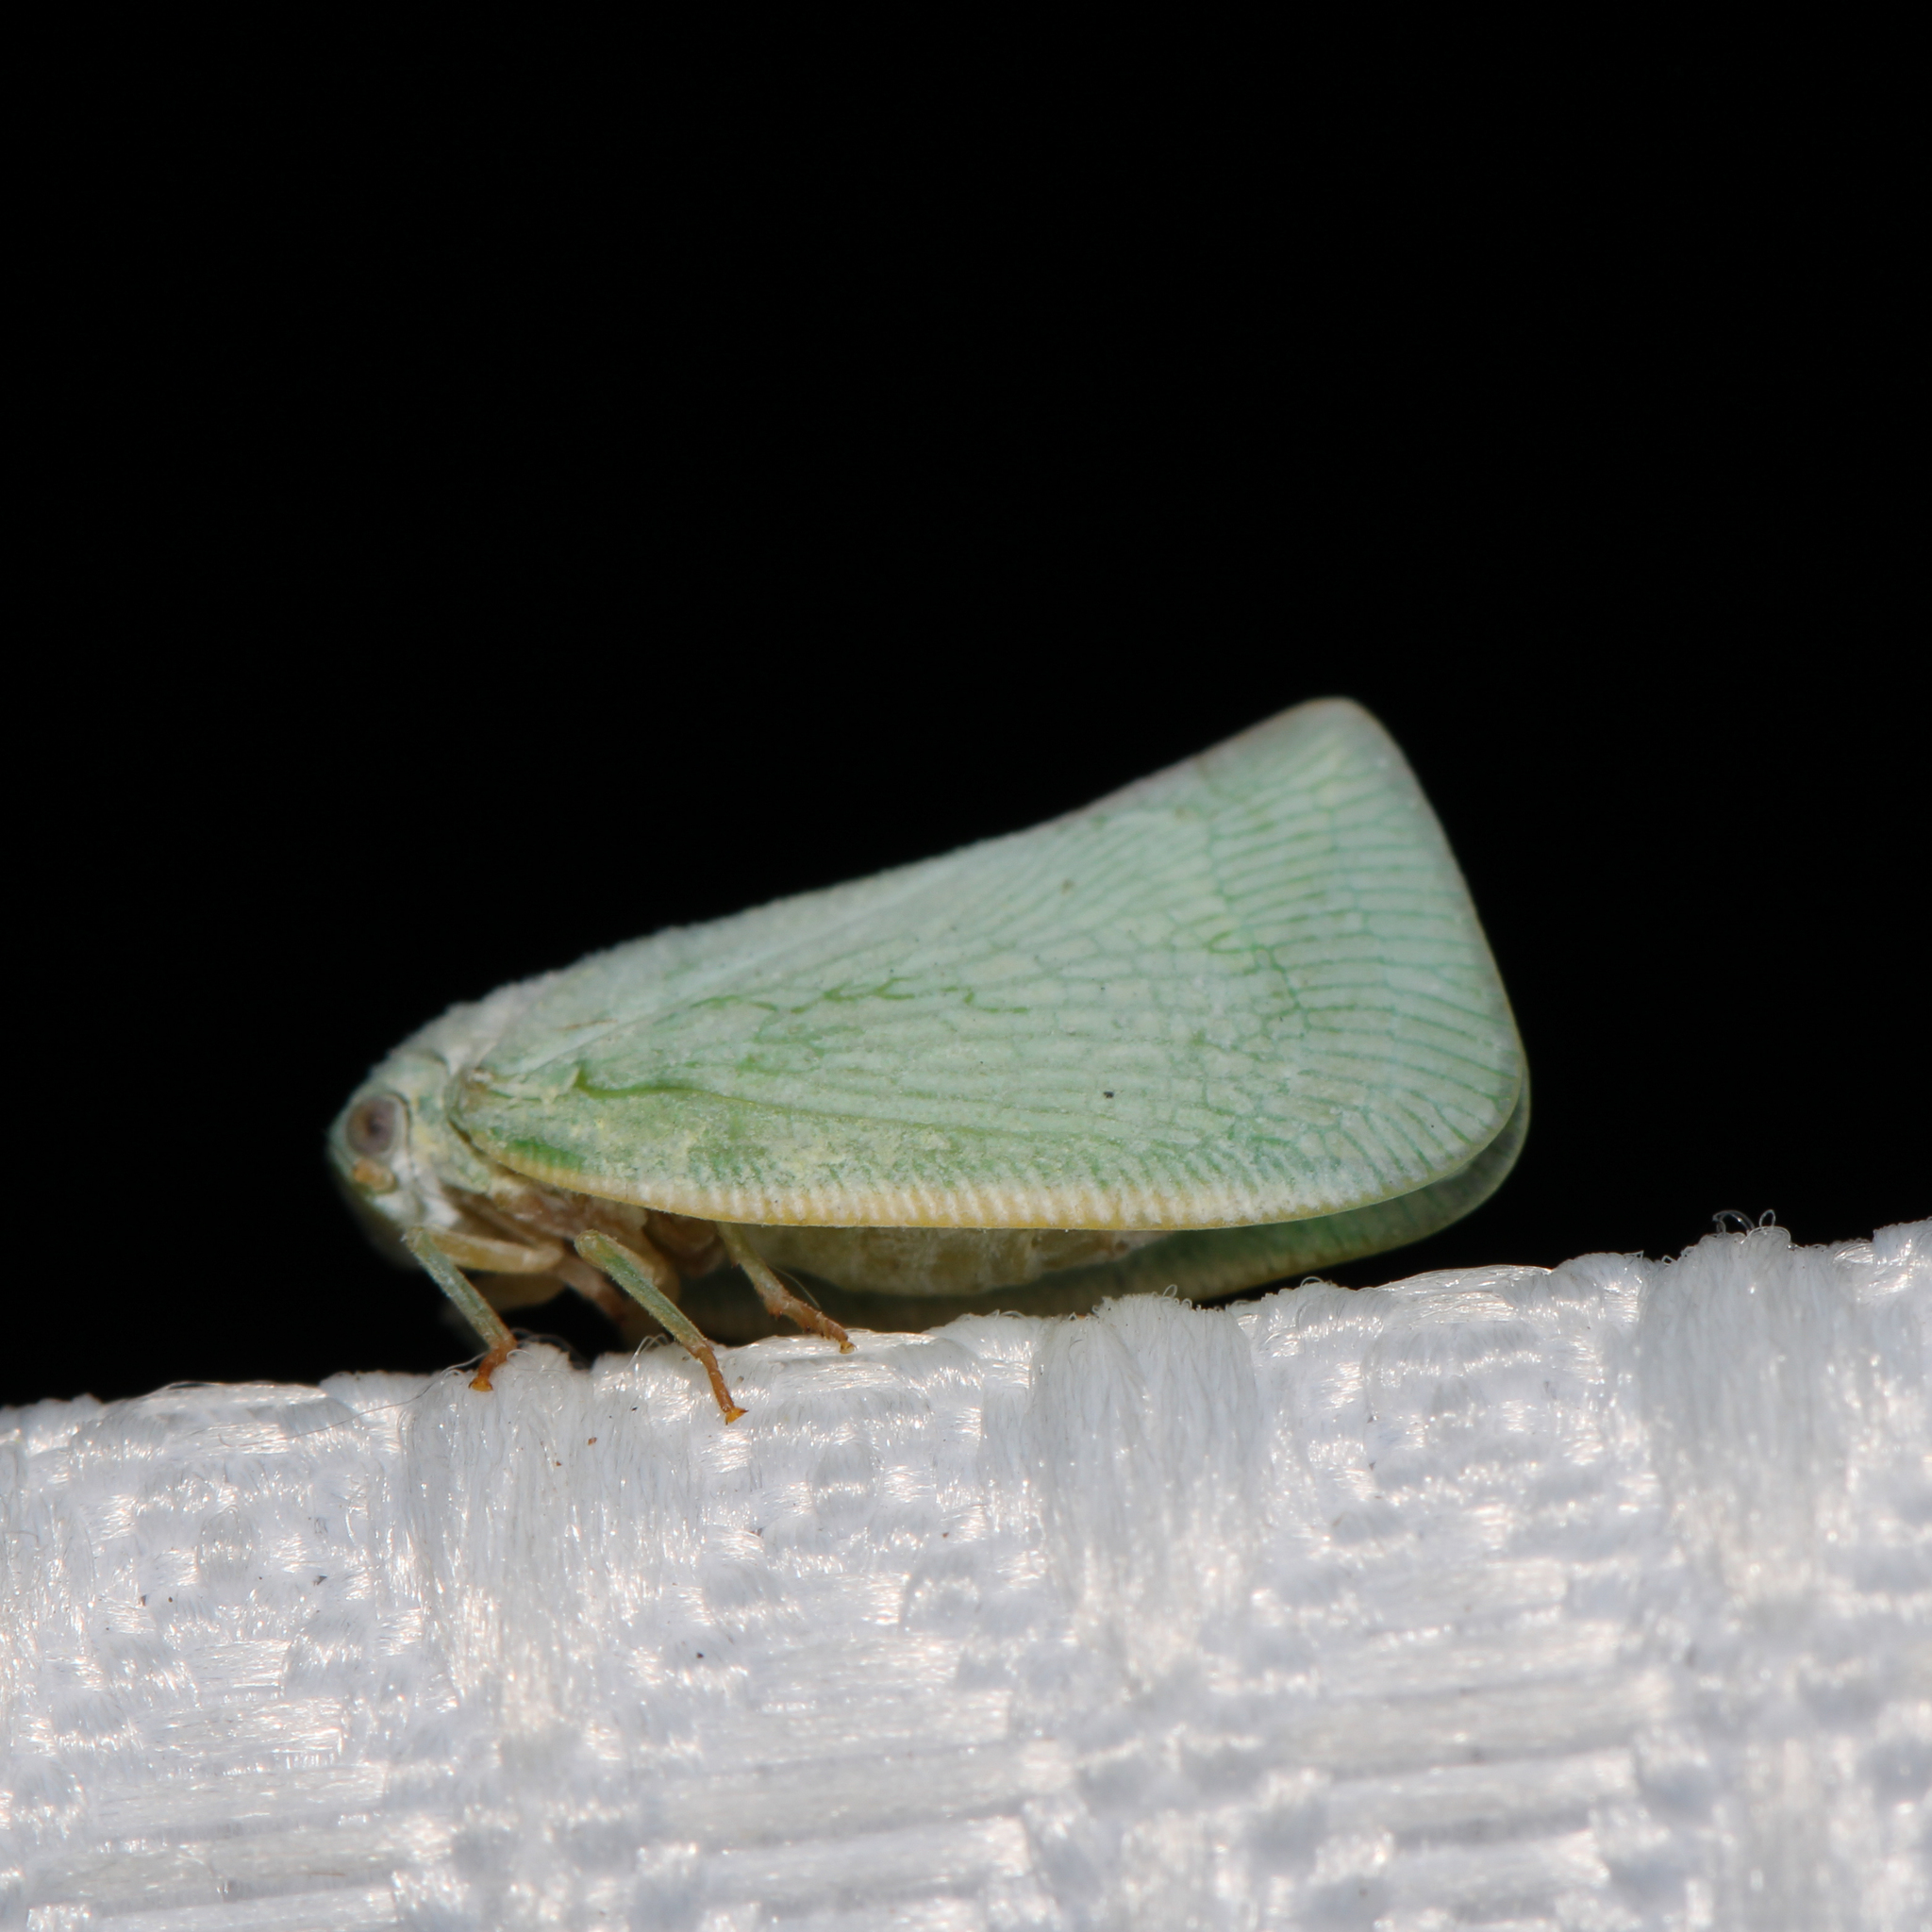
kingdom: Animalia
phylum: Arthropoda
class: Insecta
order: Hemiptera
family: Flatidae
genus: Flatormenis
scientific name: Flatormenis proxima
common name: Northern flatid planthopper
